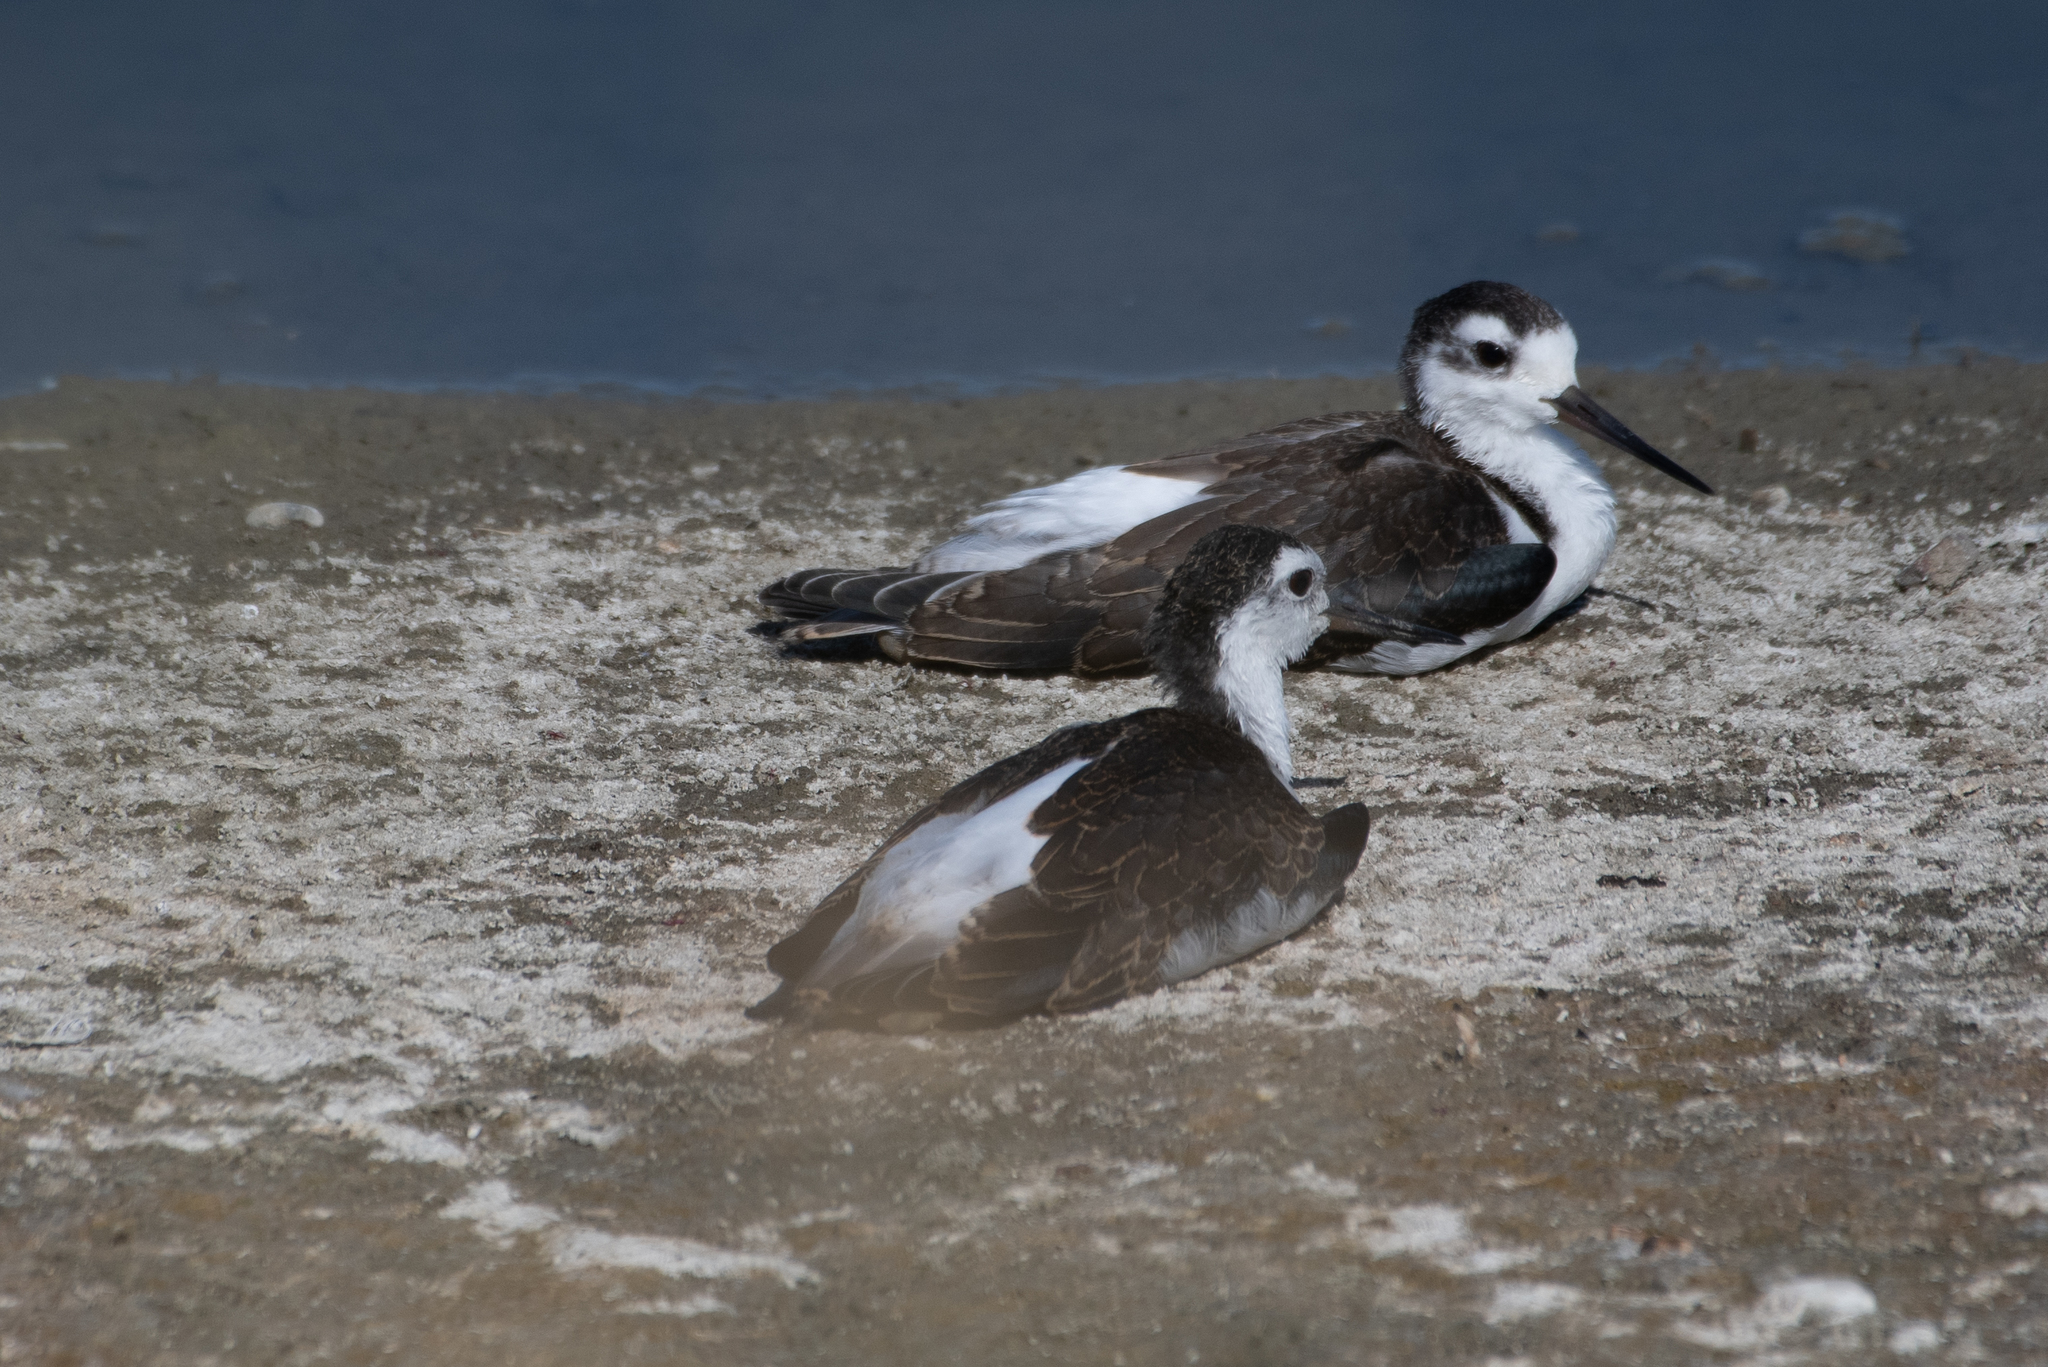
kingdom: Animalia
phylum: Chordata
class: Aves
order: Charadriiformes
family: Recurvirostridae
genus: Himantopus
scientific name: Himantopus mexicanus
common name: Black-necked stilt
